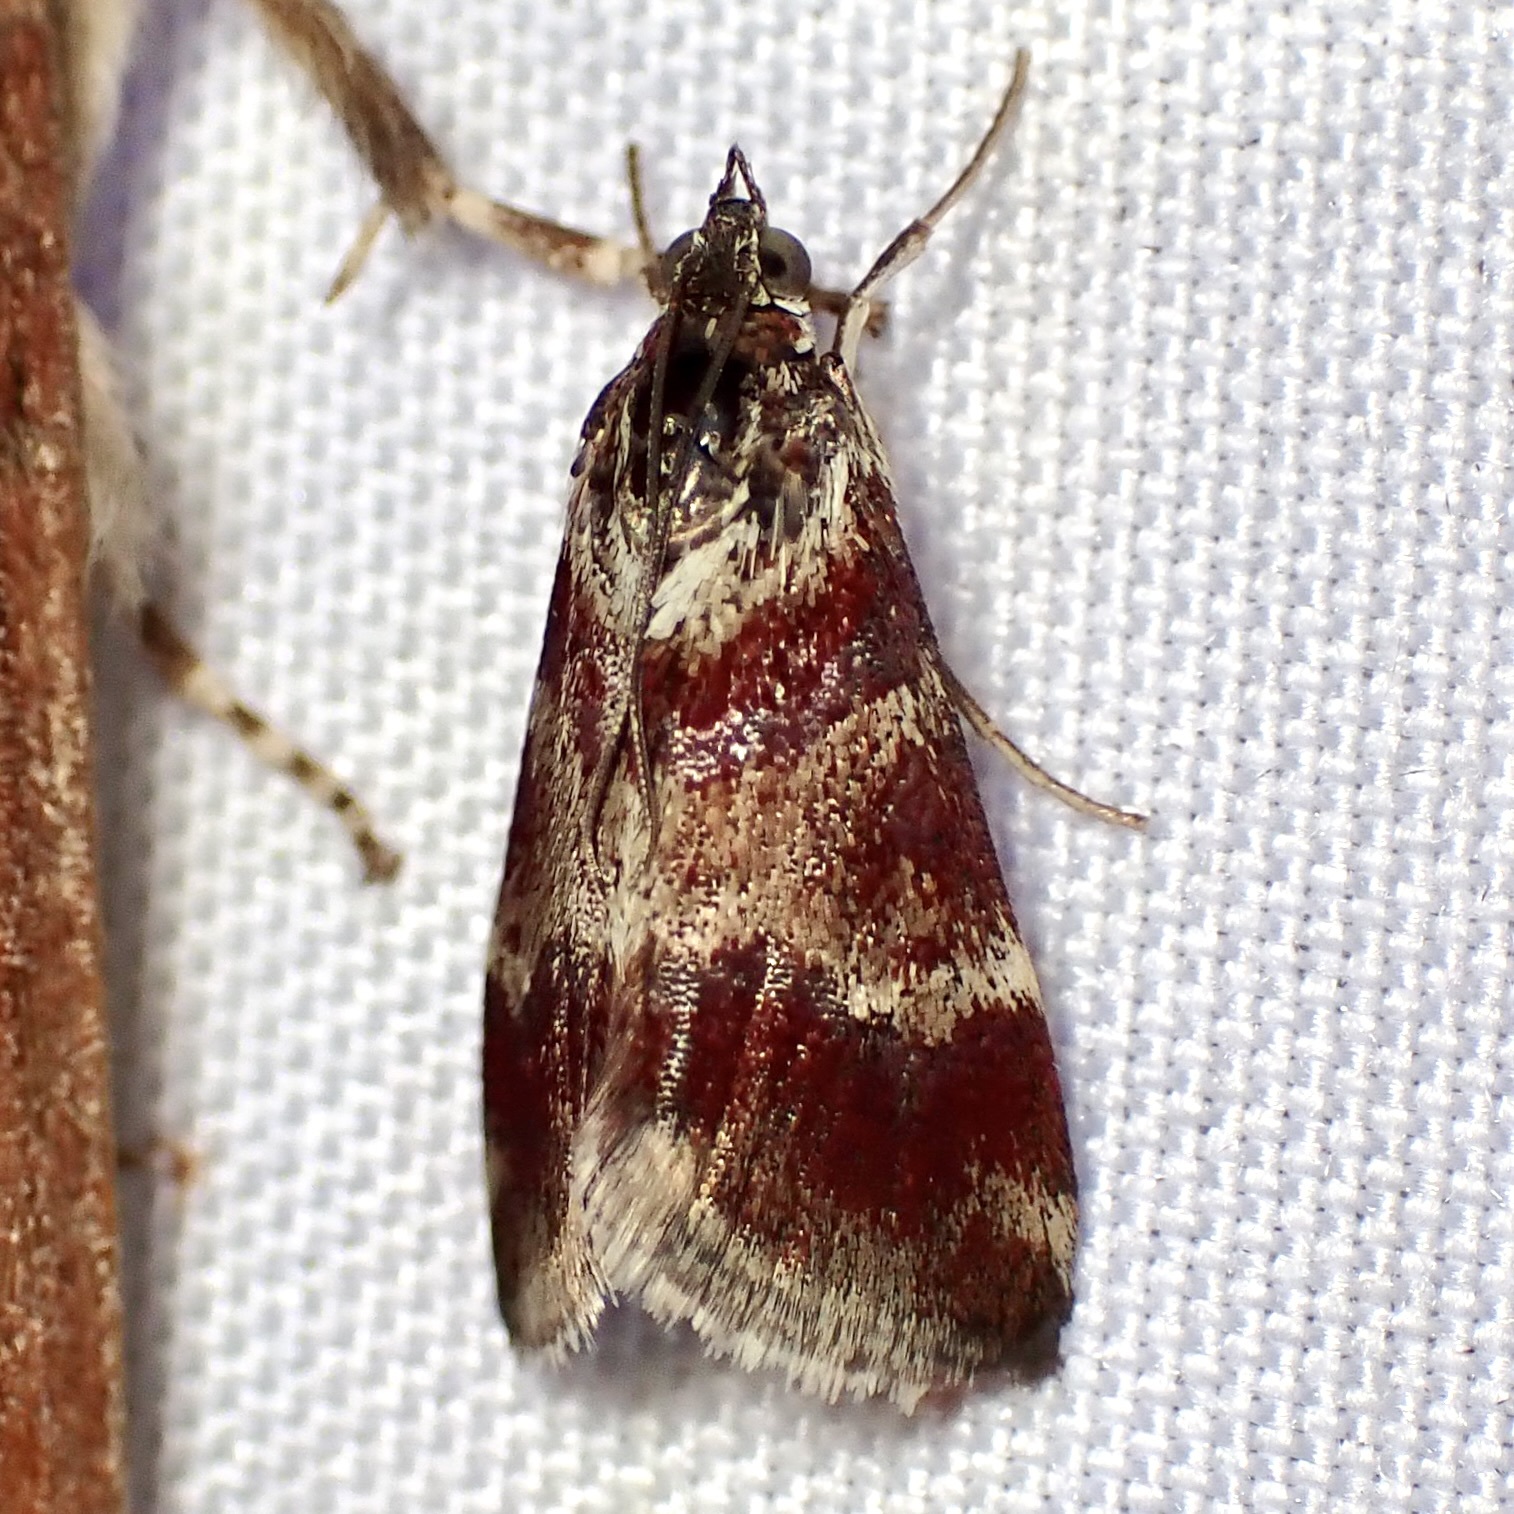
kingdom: Animalia
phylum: Arthropoda
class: Insecta
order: Lepidoptera
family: Crambidae
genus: Noctuelia
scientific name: Noctuelia Mimoschinia rufofascialis
